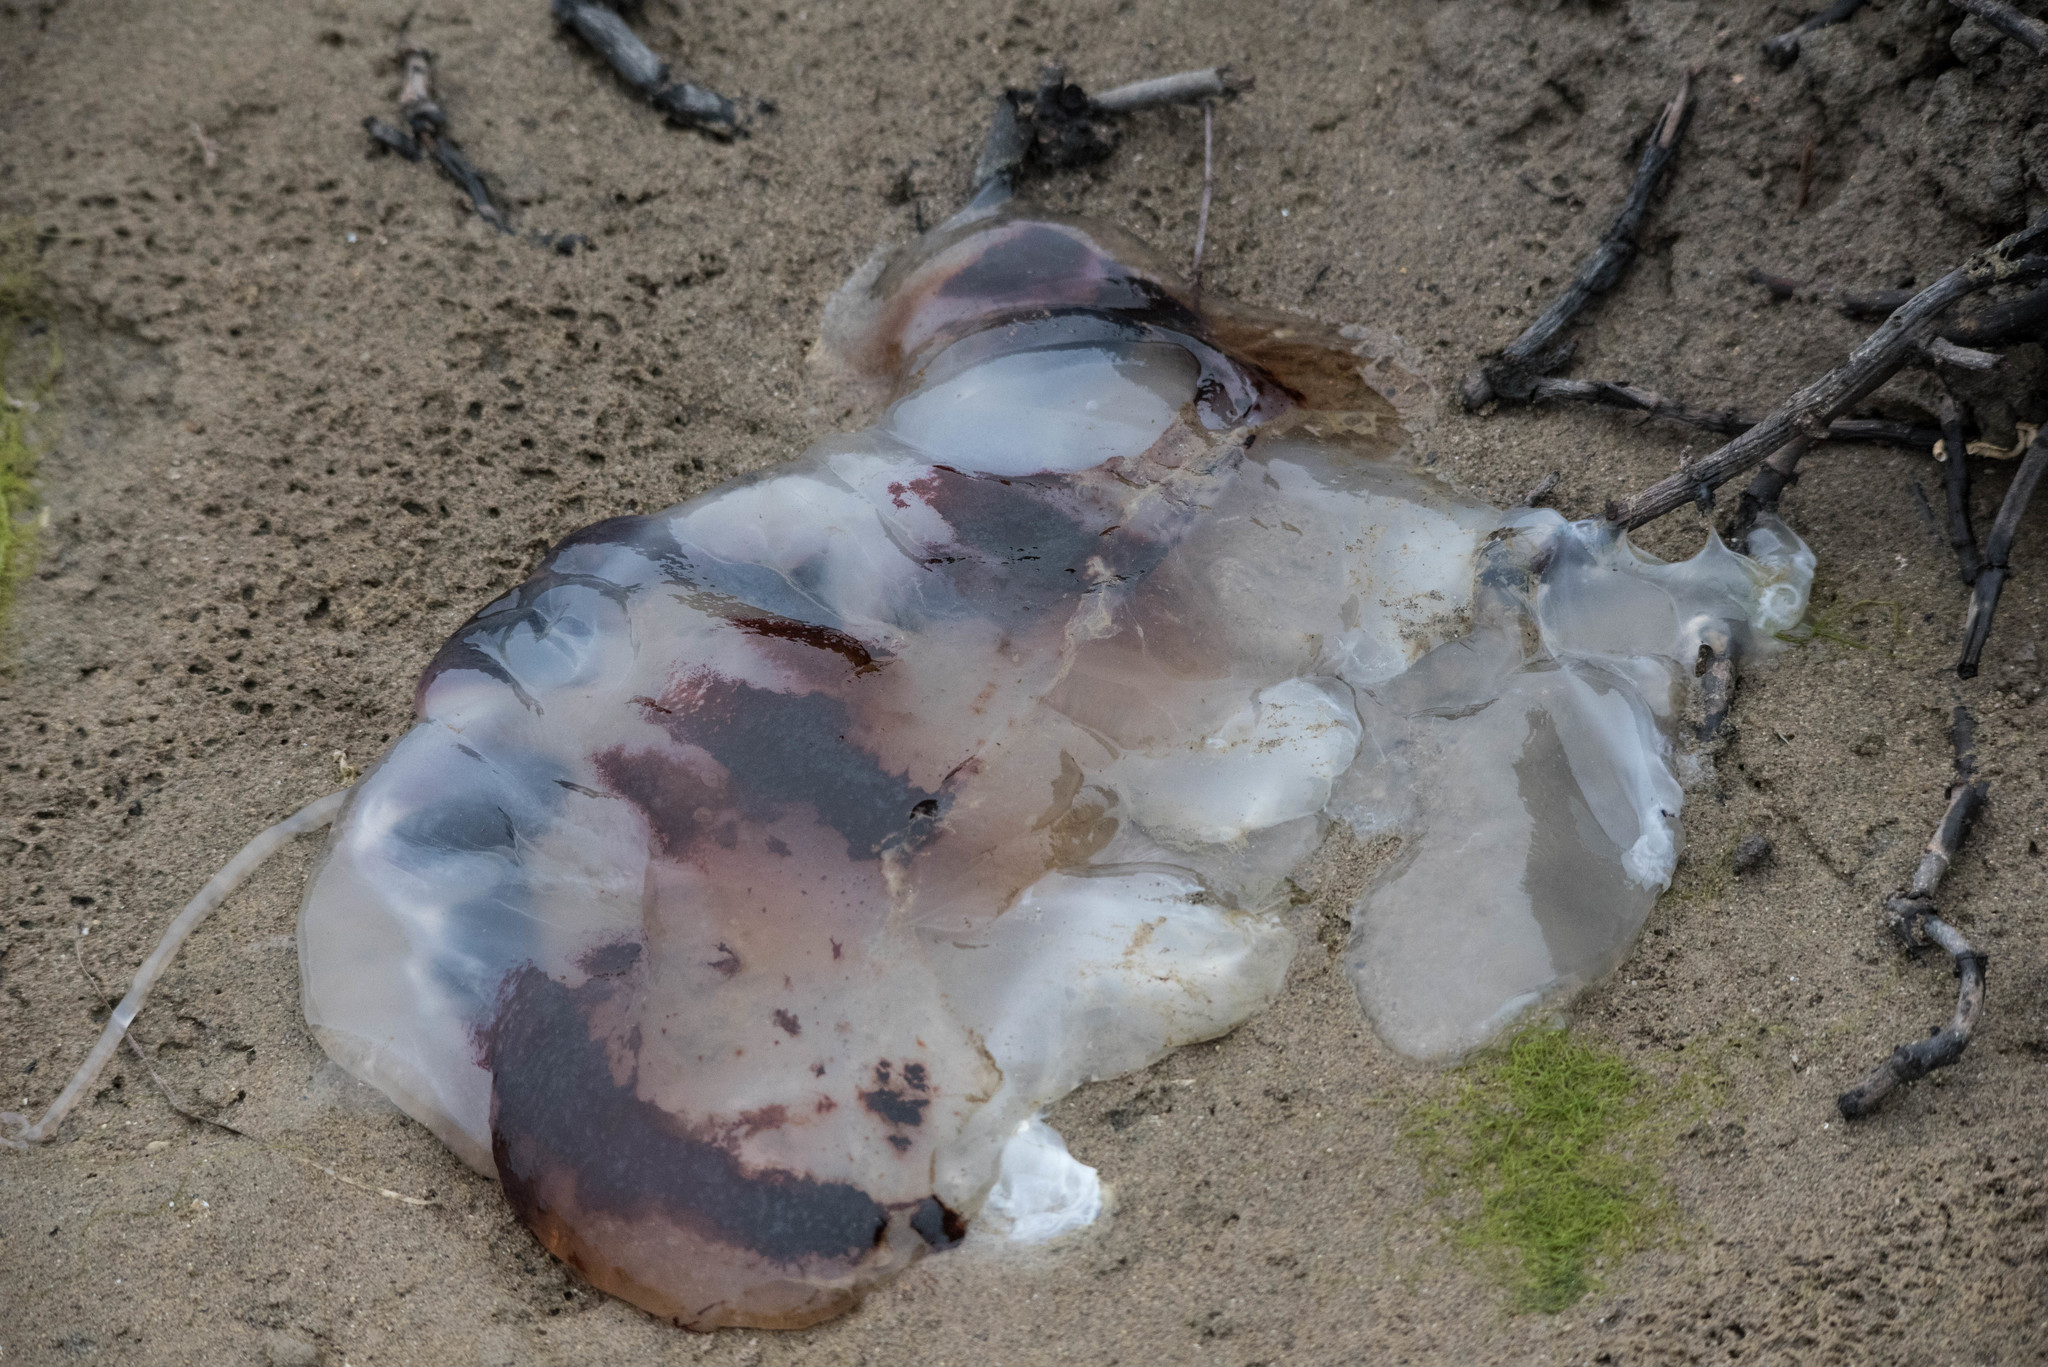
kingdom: Animalia
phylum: Cnidaria
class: Scyphozoa
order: Semaeostomeae
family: Pelagiidae
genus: Chrysaora
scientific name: Chrysaora colorata
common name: Purple-striped jellyfish
